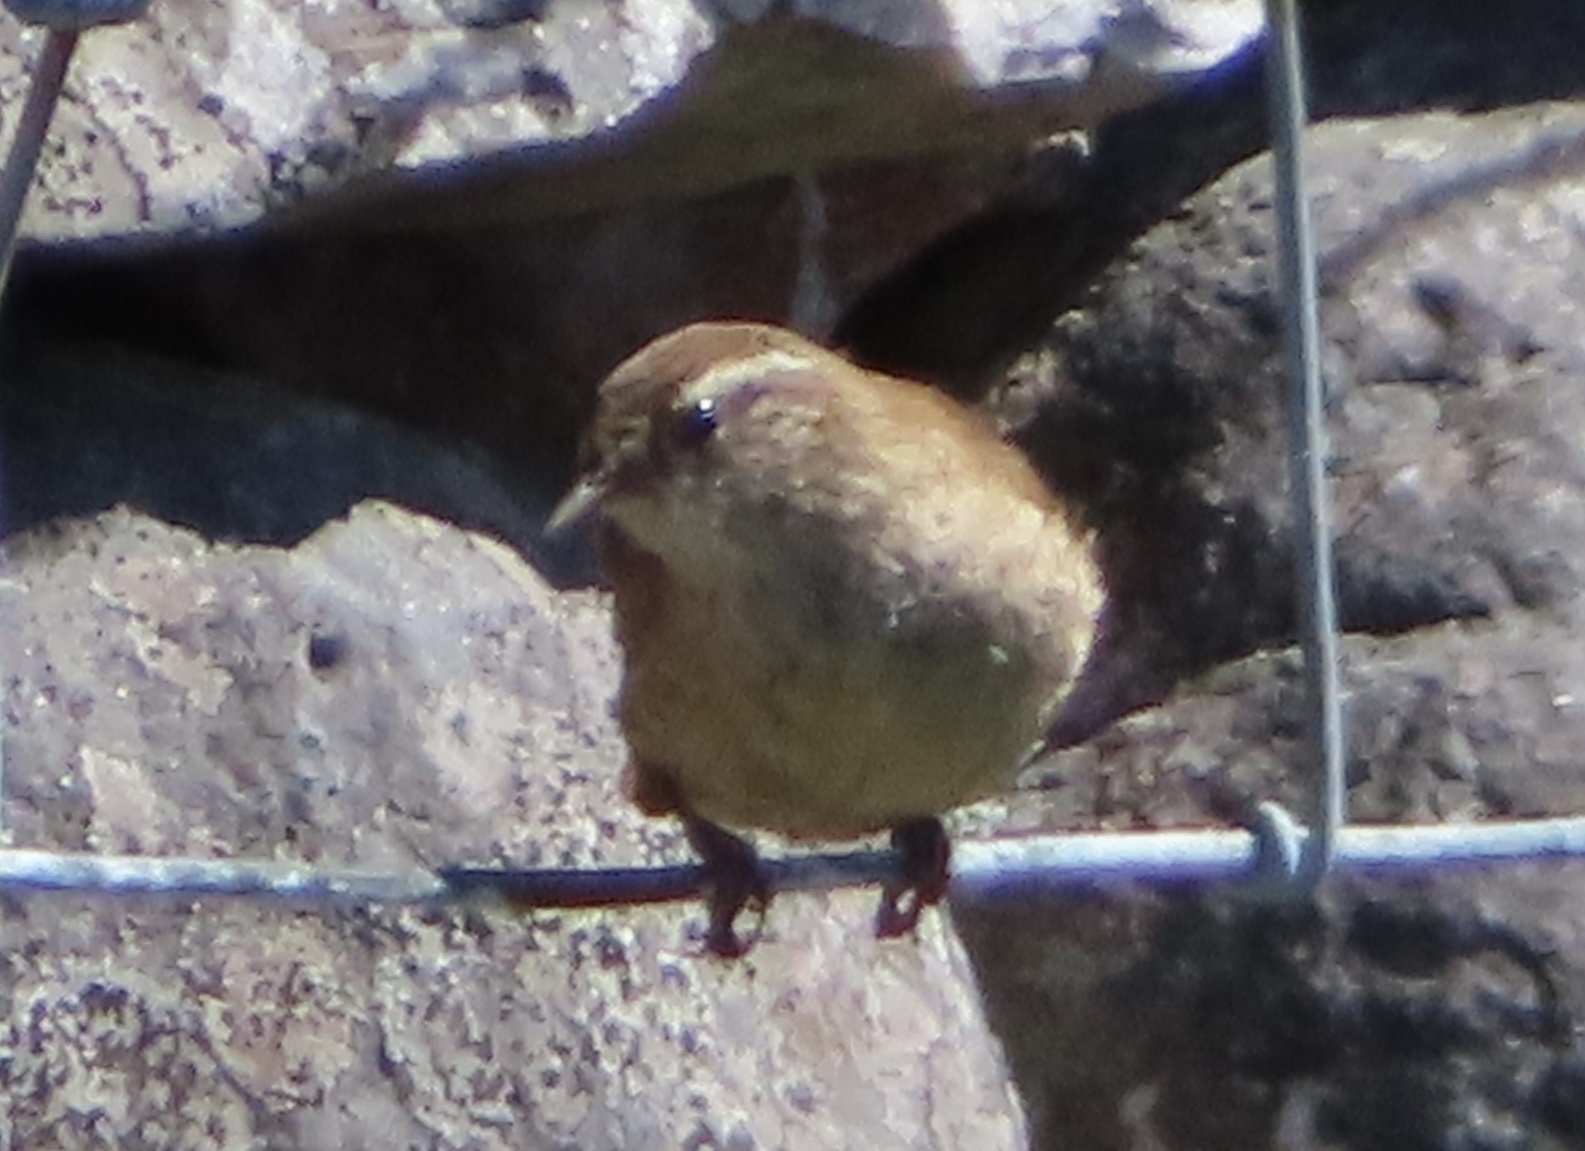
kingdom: Animalia
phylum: Chordata
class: Aves
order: Passeriformes
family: Troglodytidae
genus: Troglodytes
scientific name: Troglodytes troglodytes
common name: Eurasian wren
